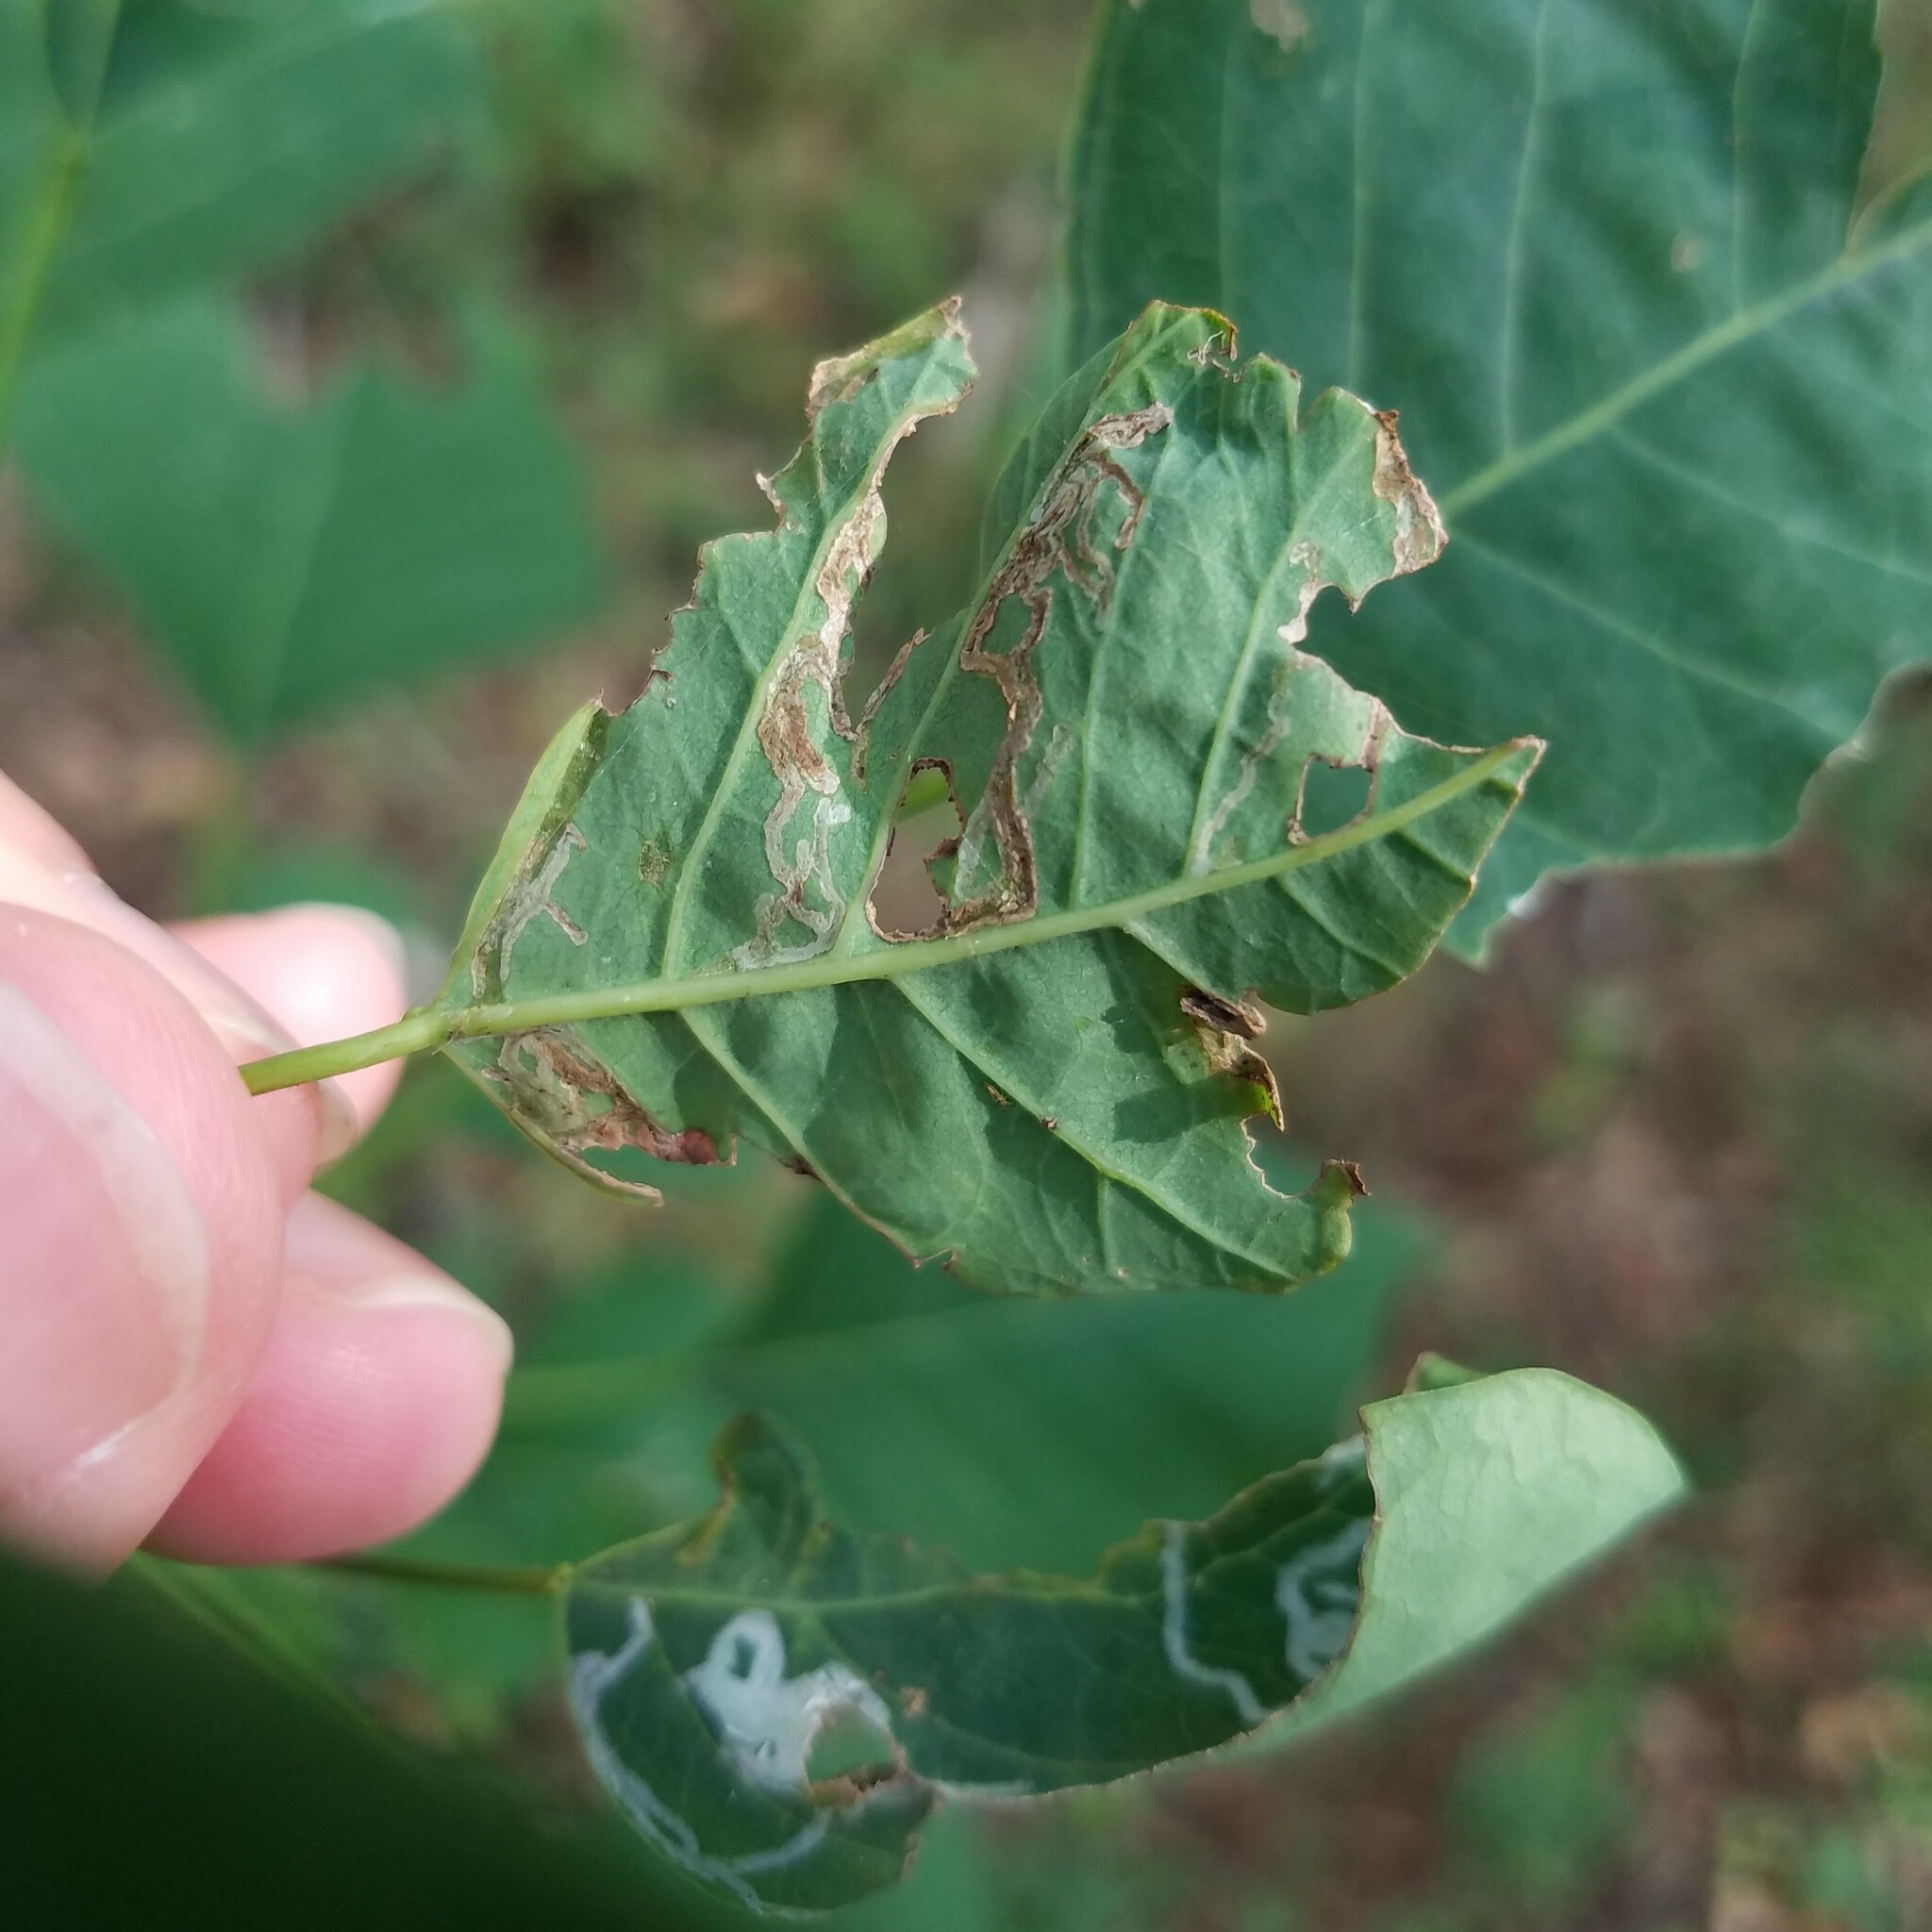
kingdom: Animalia
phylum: Arthropoda
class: Insecta
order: Lepidoptera
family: Gracillariidae
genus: Caloptilia
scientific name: Caloptilia triadicae
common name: Tallow leaf roller
